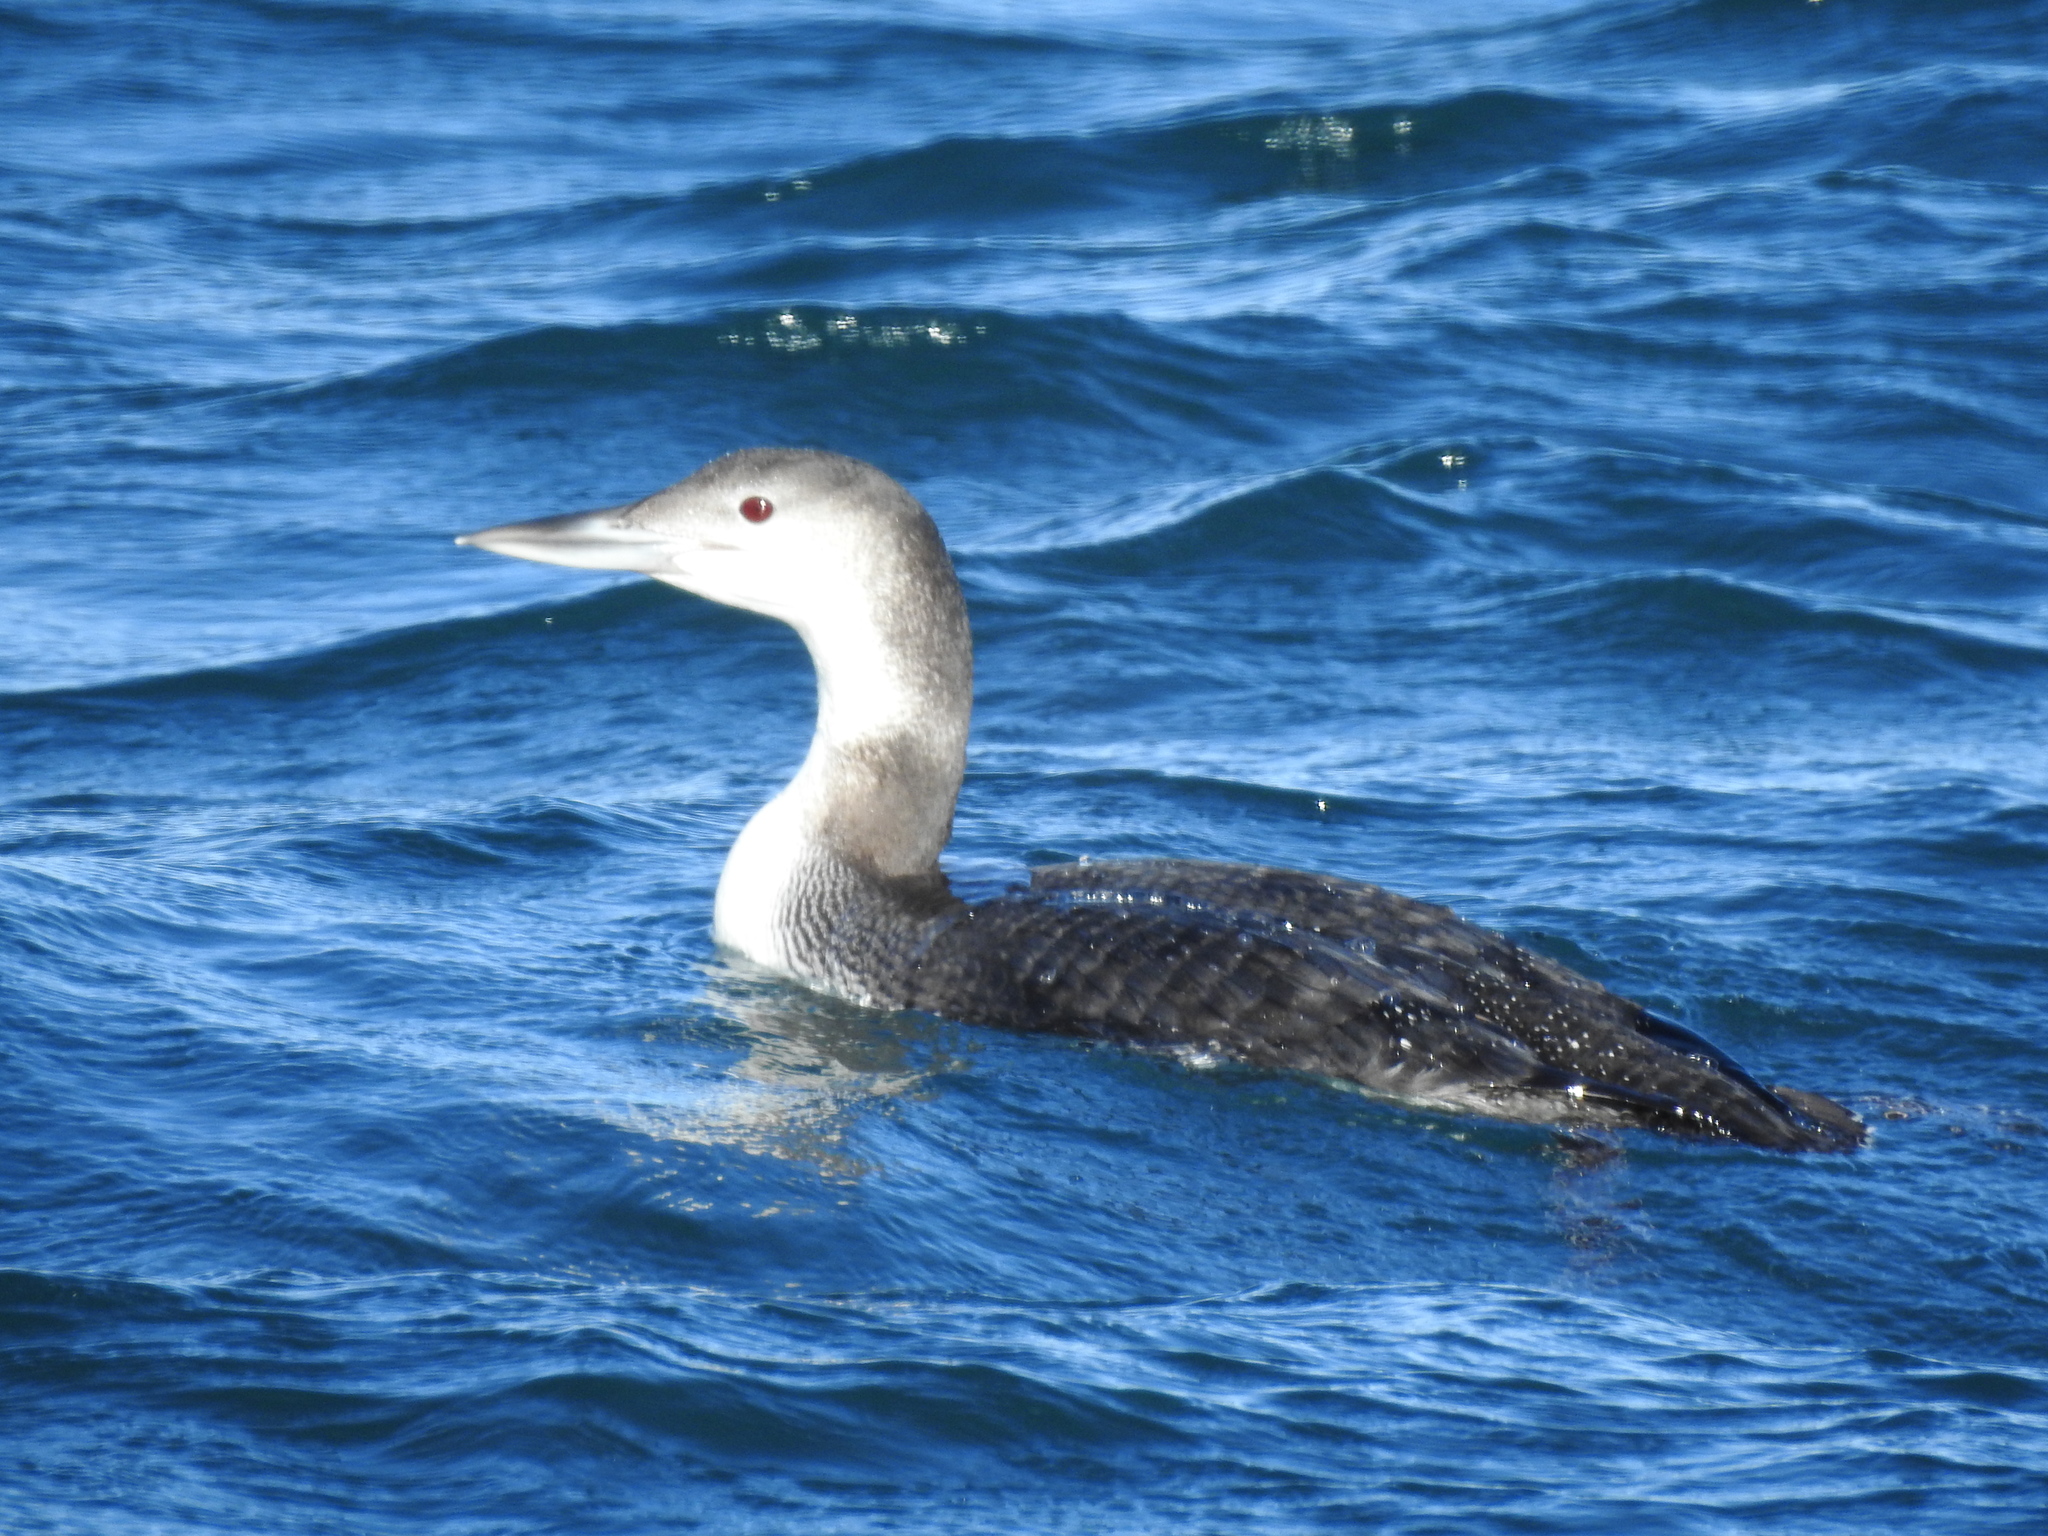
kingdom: Animalia
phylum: Chordata
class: Aves
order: Gaviiformes
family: Gaviidae
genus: Gavia
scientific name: Gavia immer
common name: Common loon
